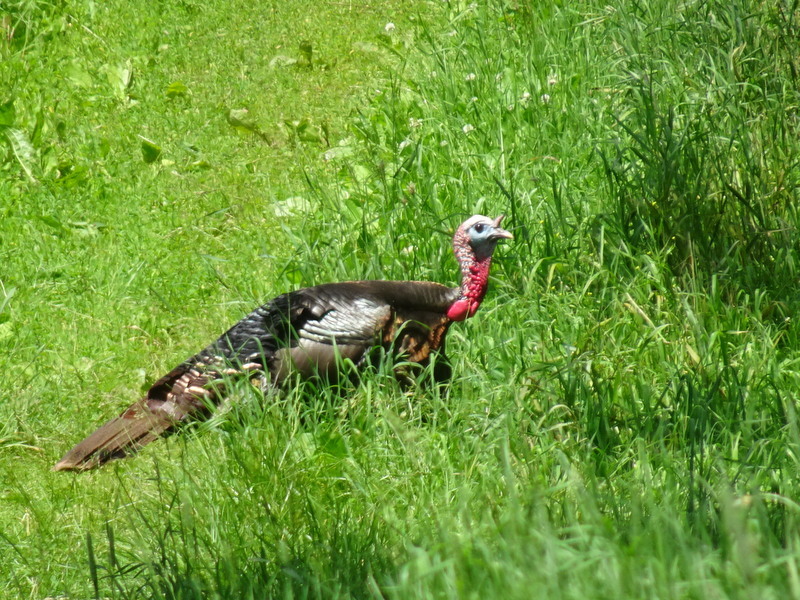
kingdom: Animalia
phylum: Chordata
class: Aves
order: Galliformes
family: Phasianidae
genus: Meleagris
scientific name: Meleagris gallopavo
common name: Wild turkey
